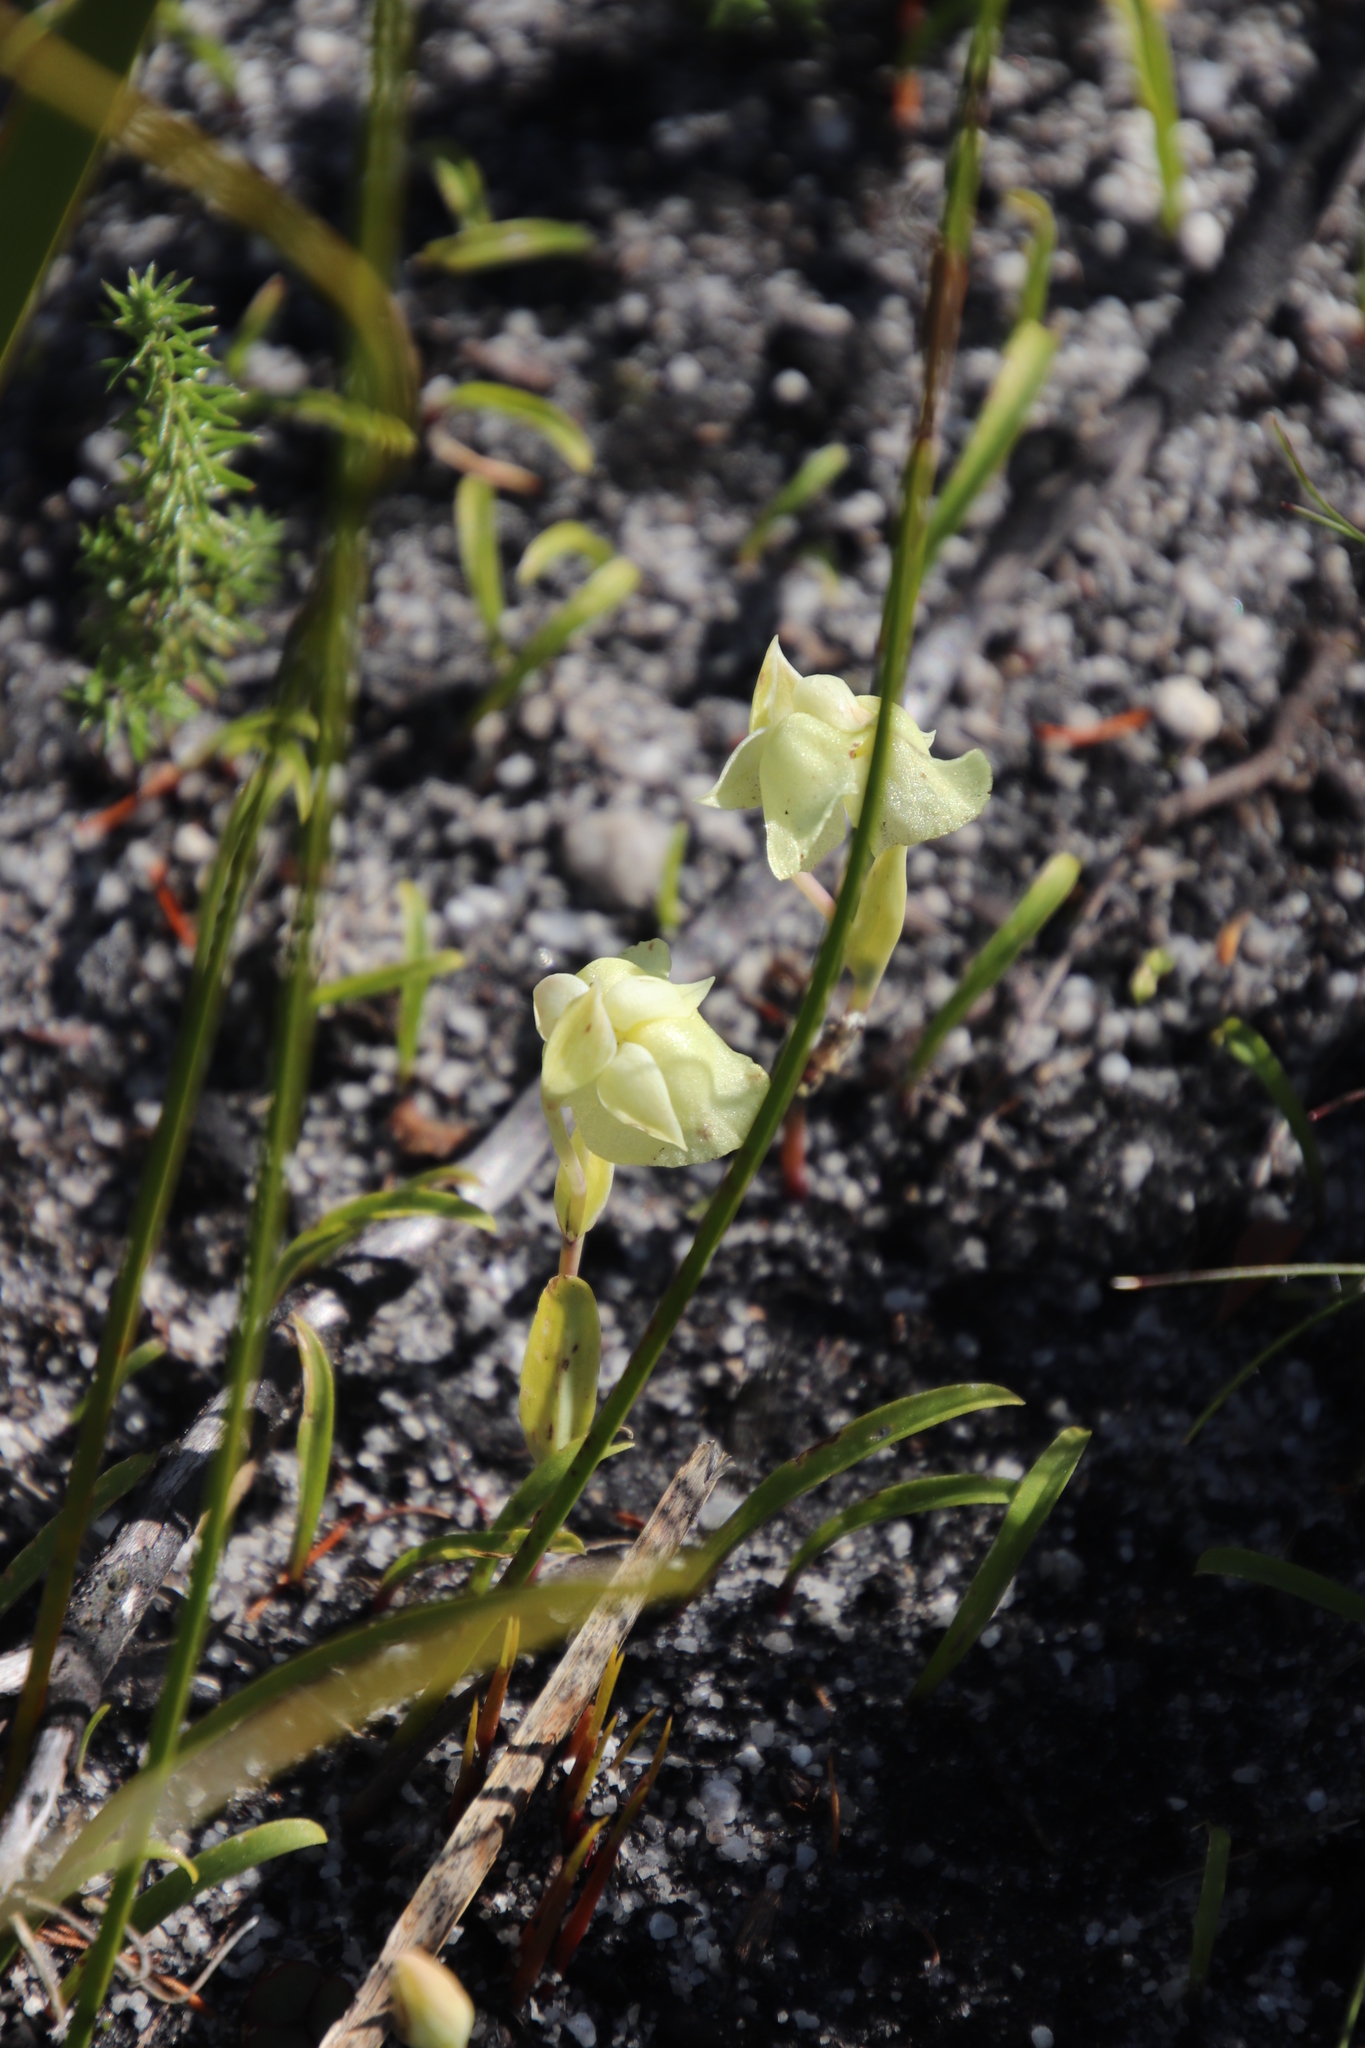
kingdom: Plantae
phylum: Tracheophyta
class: Liliopsida
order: Asparagales
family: Orchidaceae
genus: Pterygodium
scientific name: Pterygodium platypetalum
